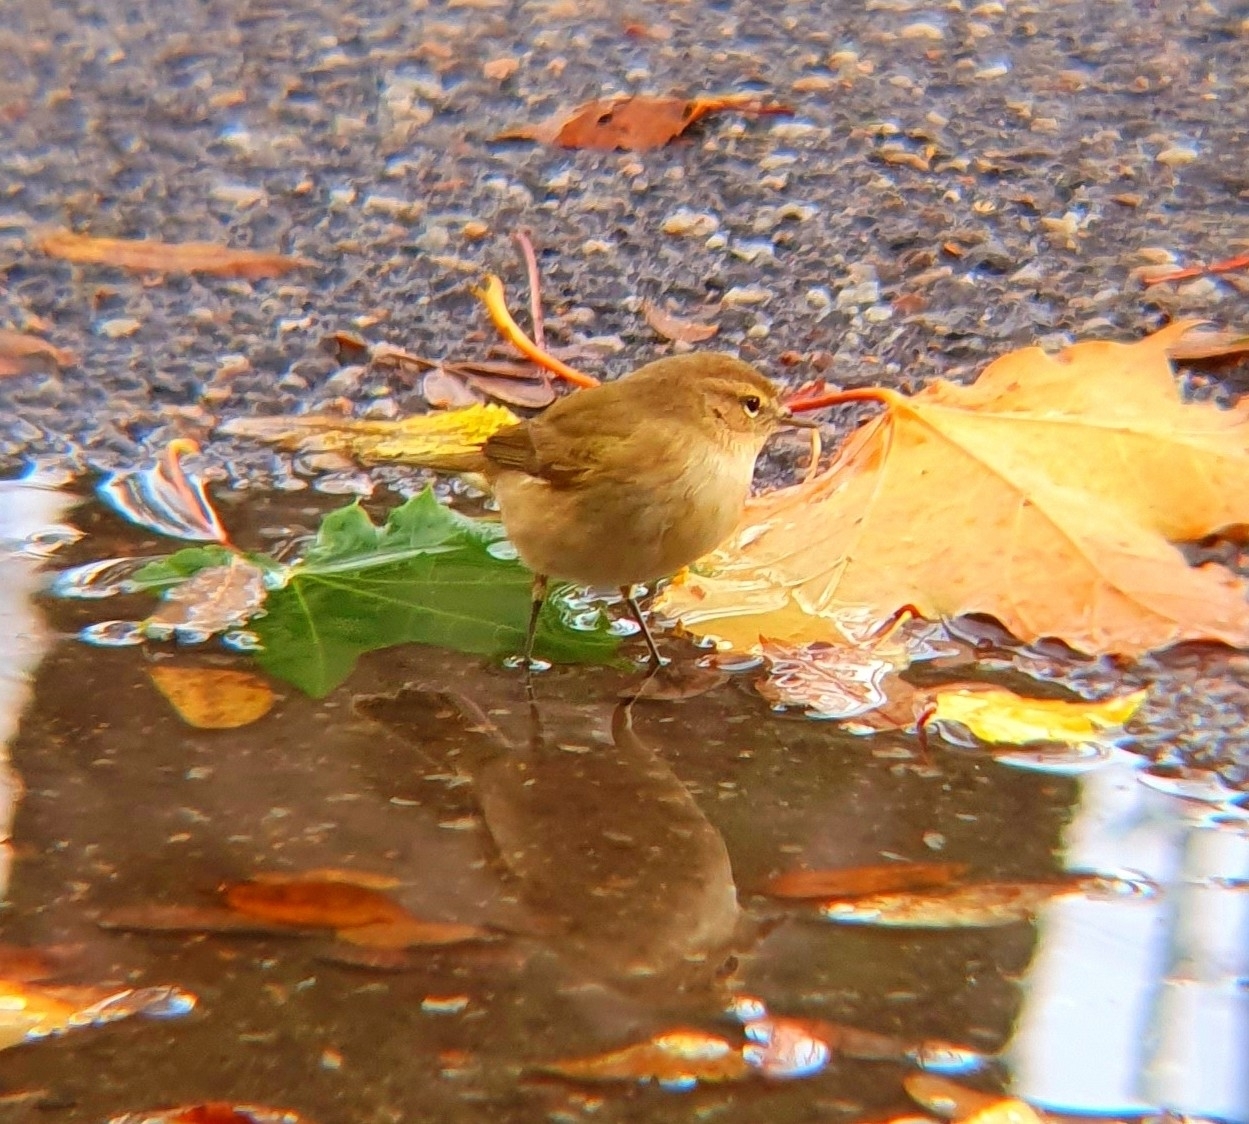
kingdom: Animalia
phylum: Chordata
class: Aves
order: Passeriformes
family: Phylloscopidae
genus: Phylloscopus
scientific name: Phylloscopus collybita
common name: Common chiffchaff
